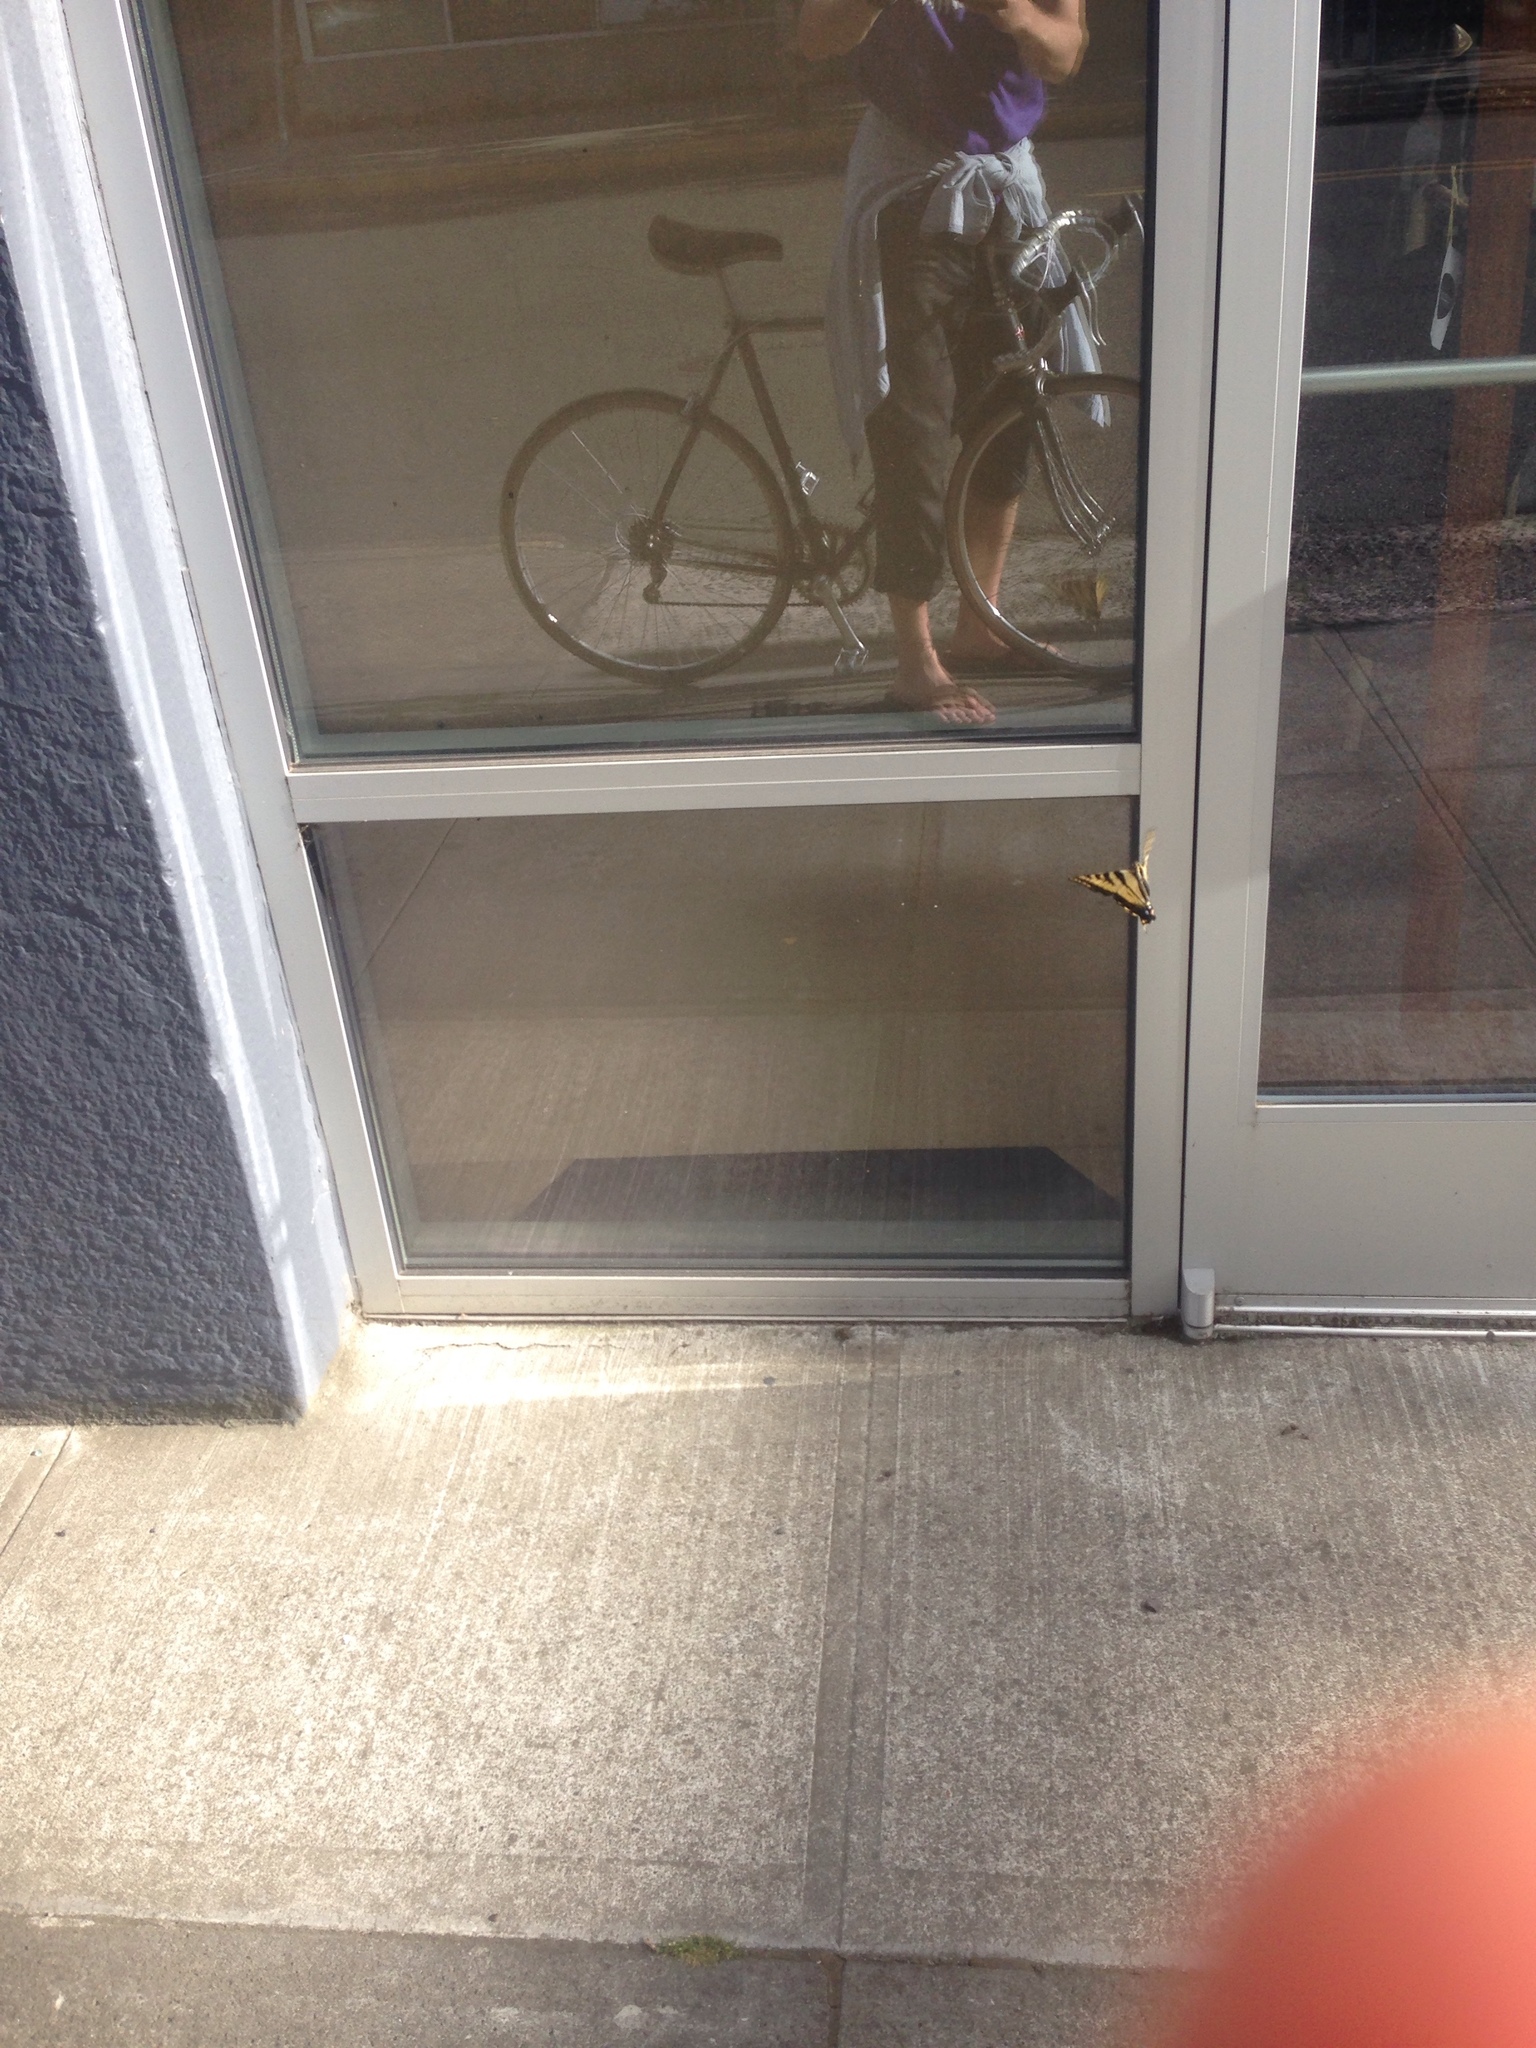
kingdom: Animalia
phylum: Arthropoda
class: Insecta
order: Lepidoptera
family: Papilionidae
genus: Papilio
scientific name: Papilio rutulus
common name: Western tiger swallowtail
